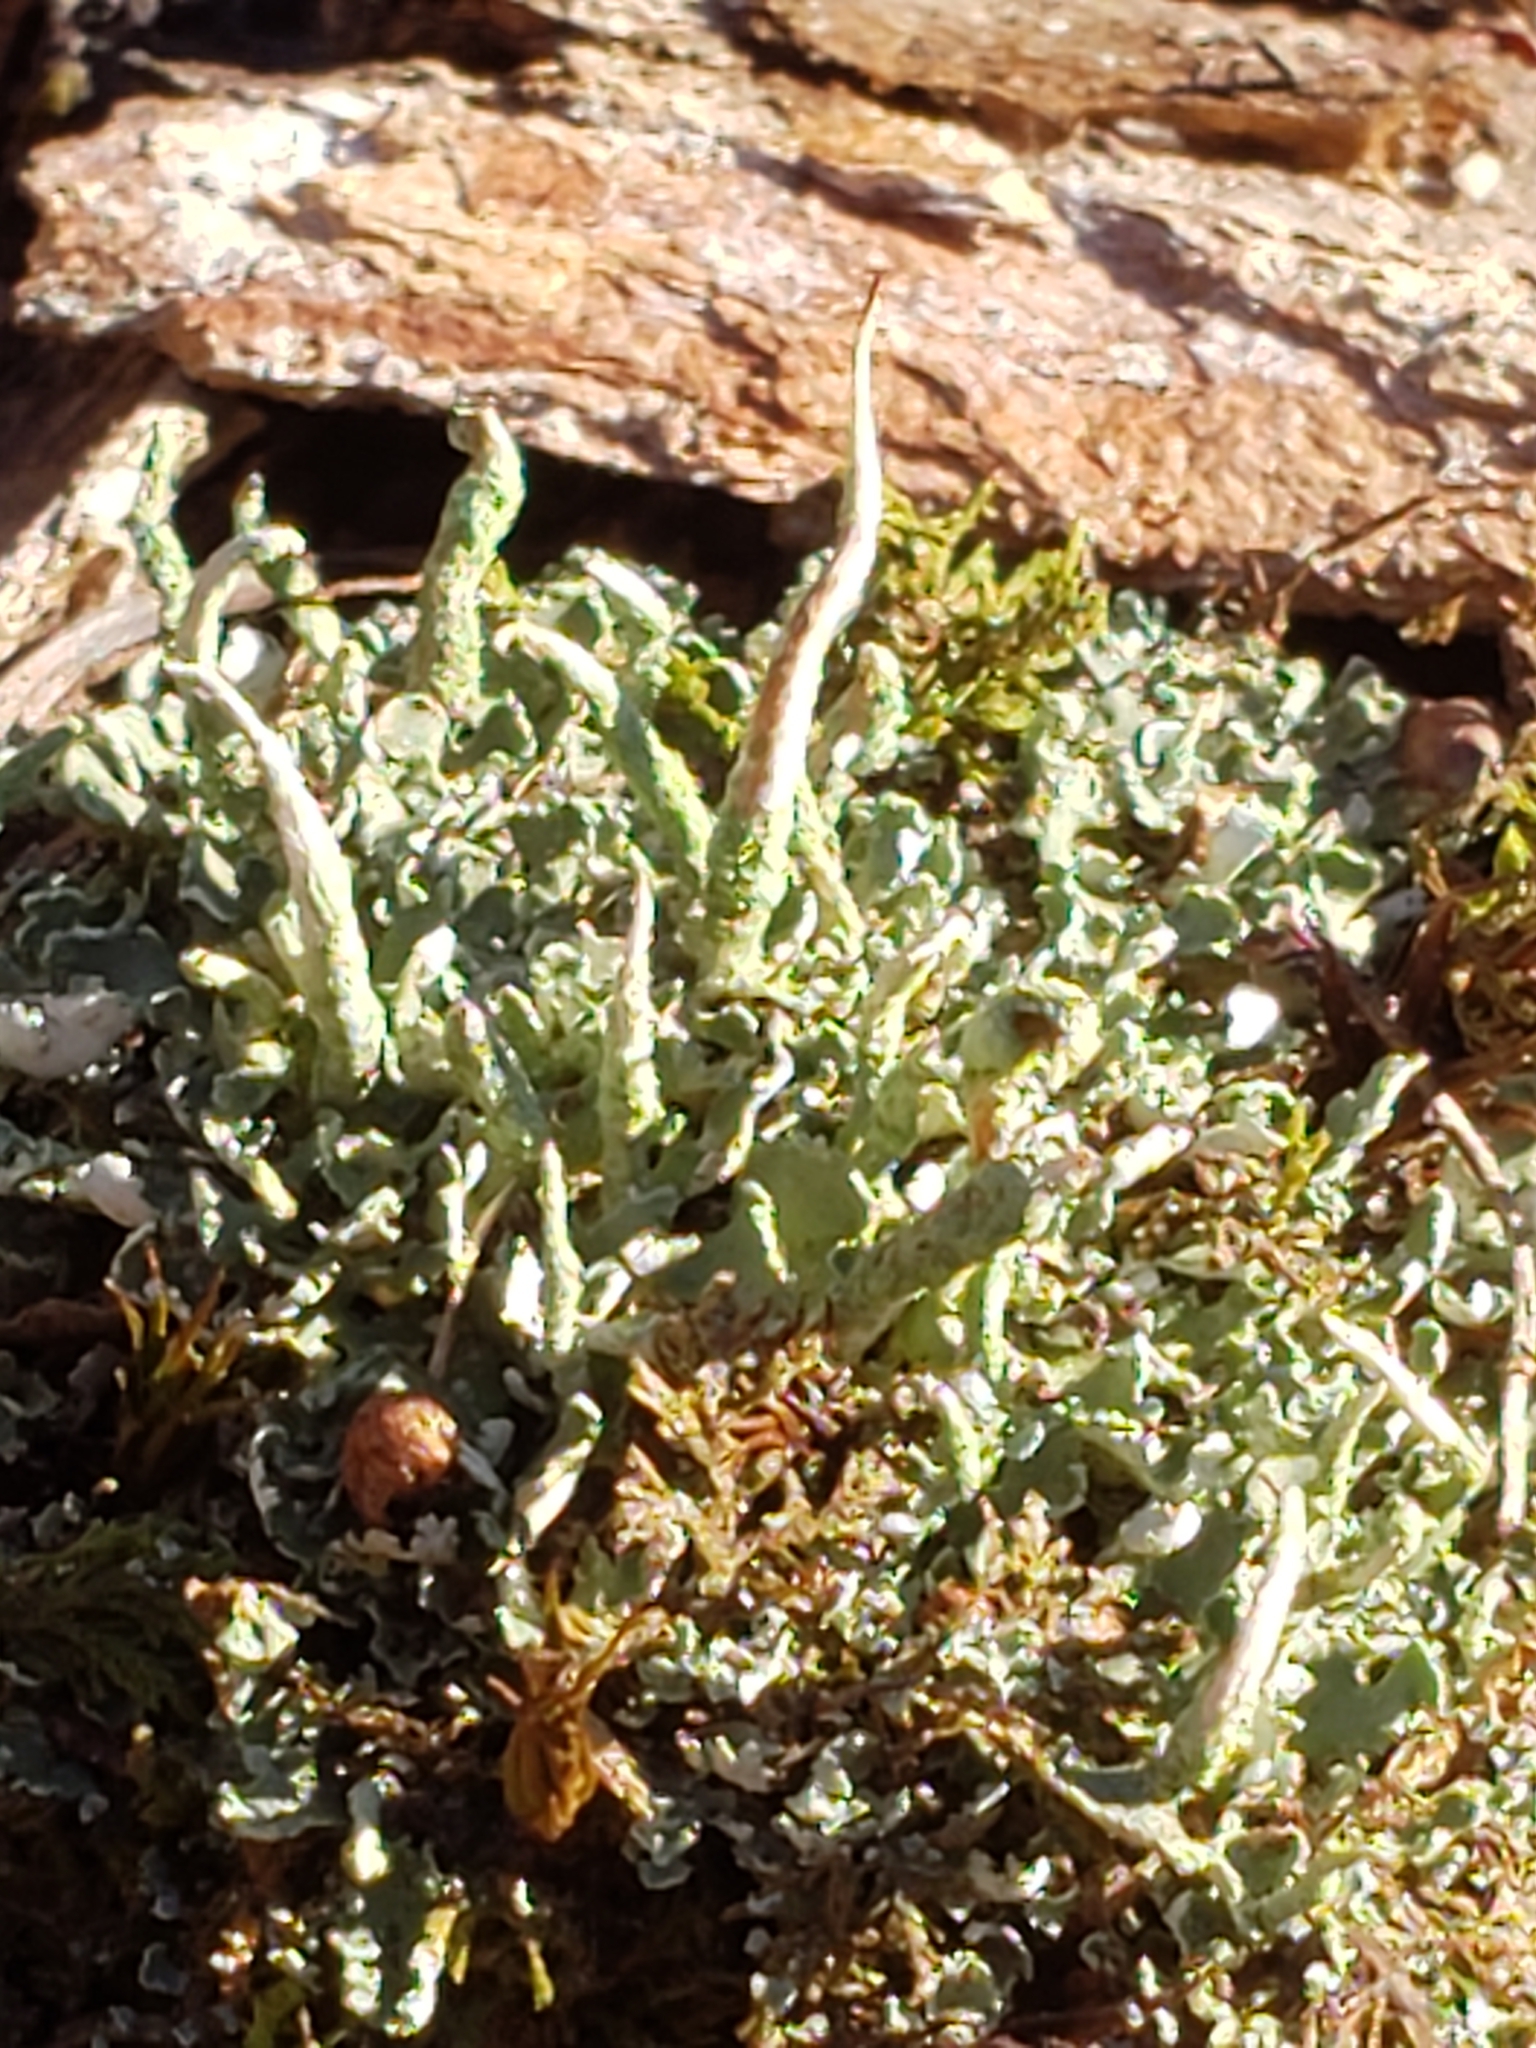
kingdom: Fungi
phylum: Ascomycota
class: Lecanoromycetes
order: Lecanorales
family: Cladoniaceae
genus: Cladonia
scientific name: Cladonia coniocraea
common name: Common powderhorn
